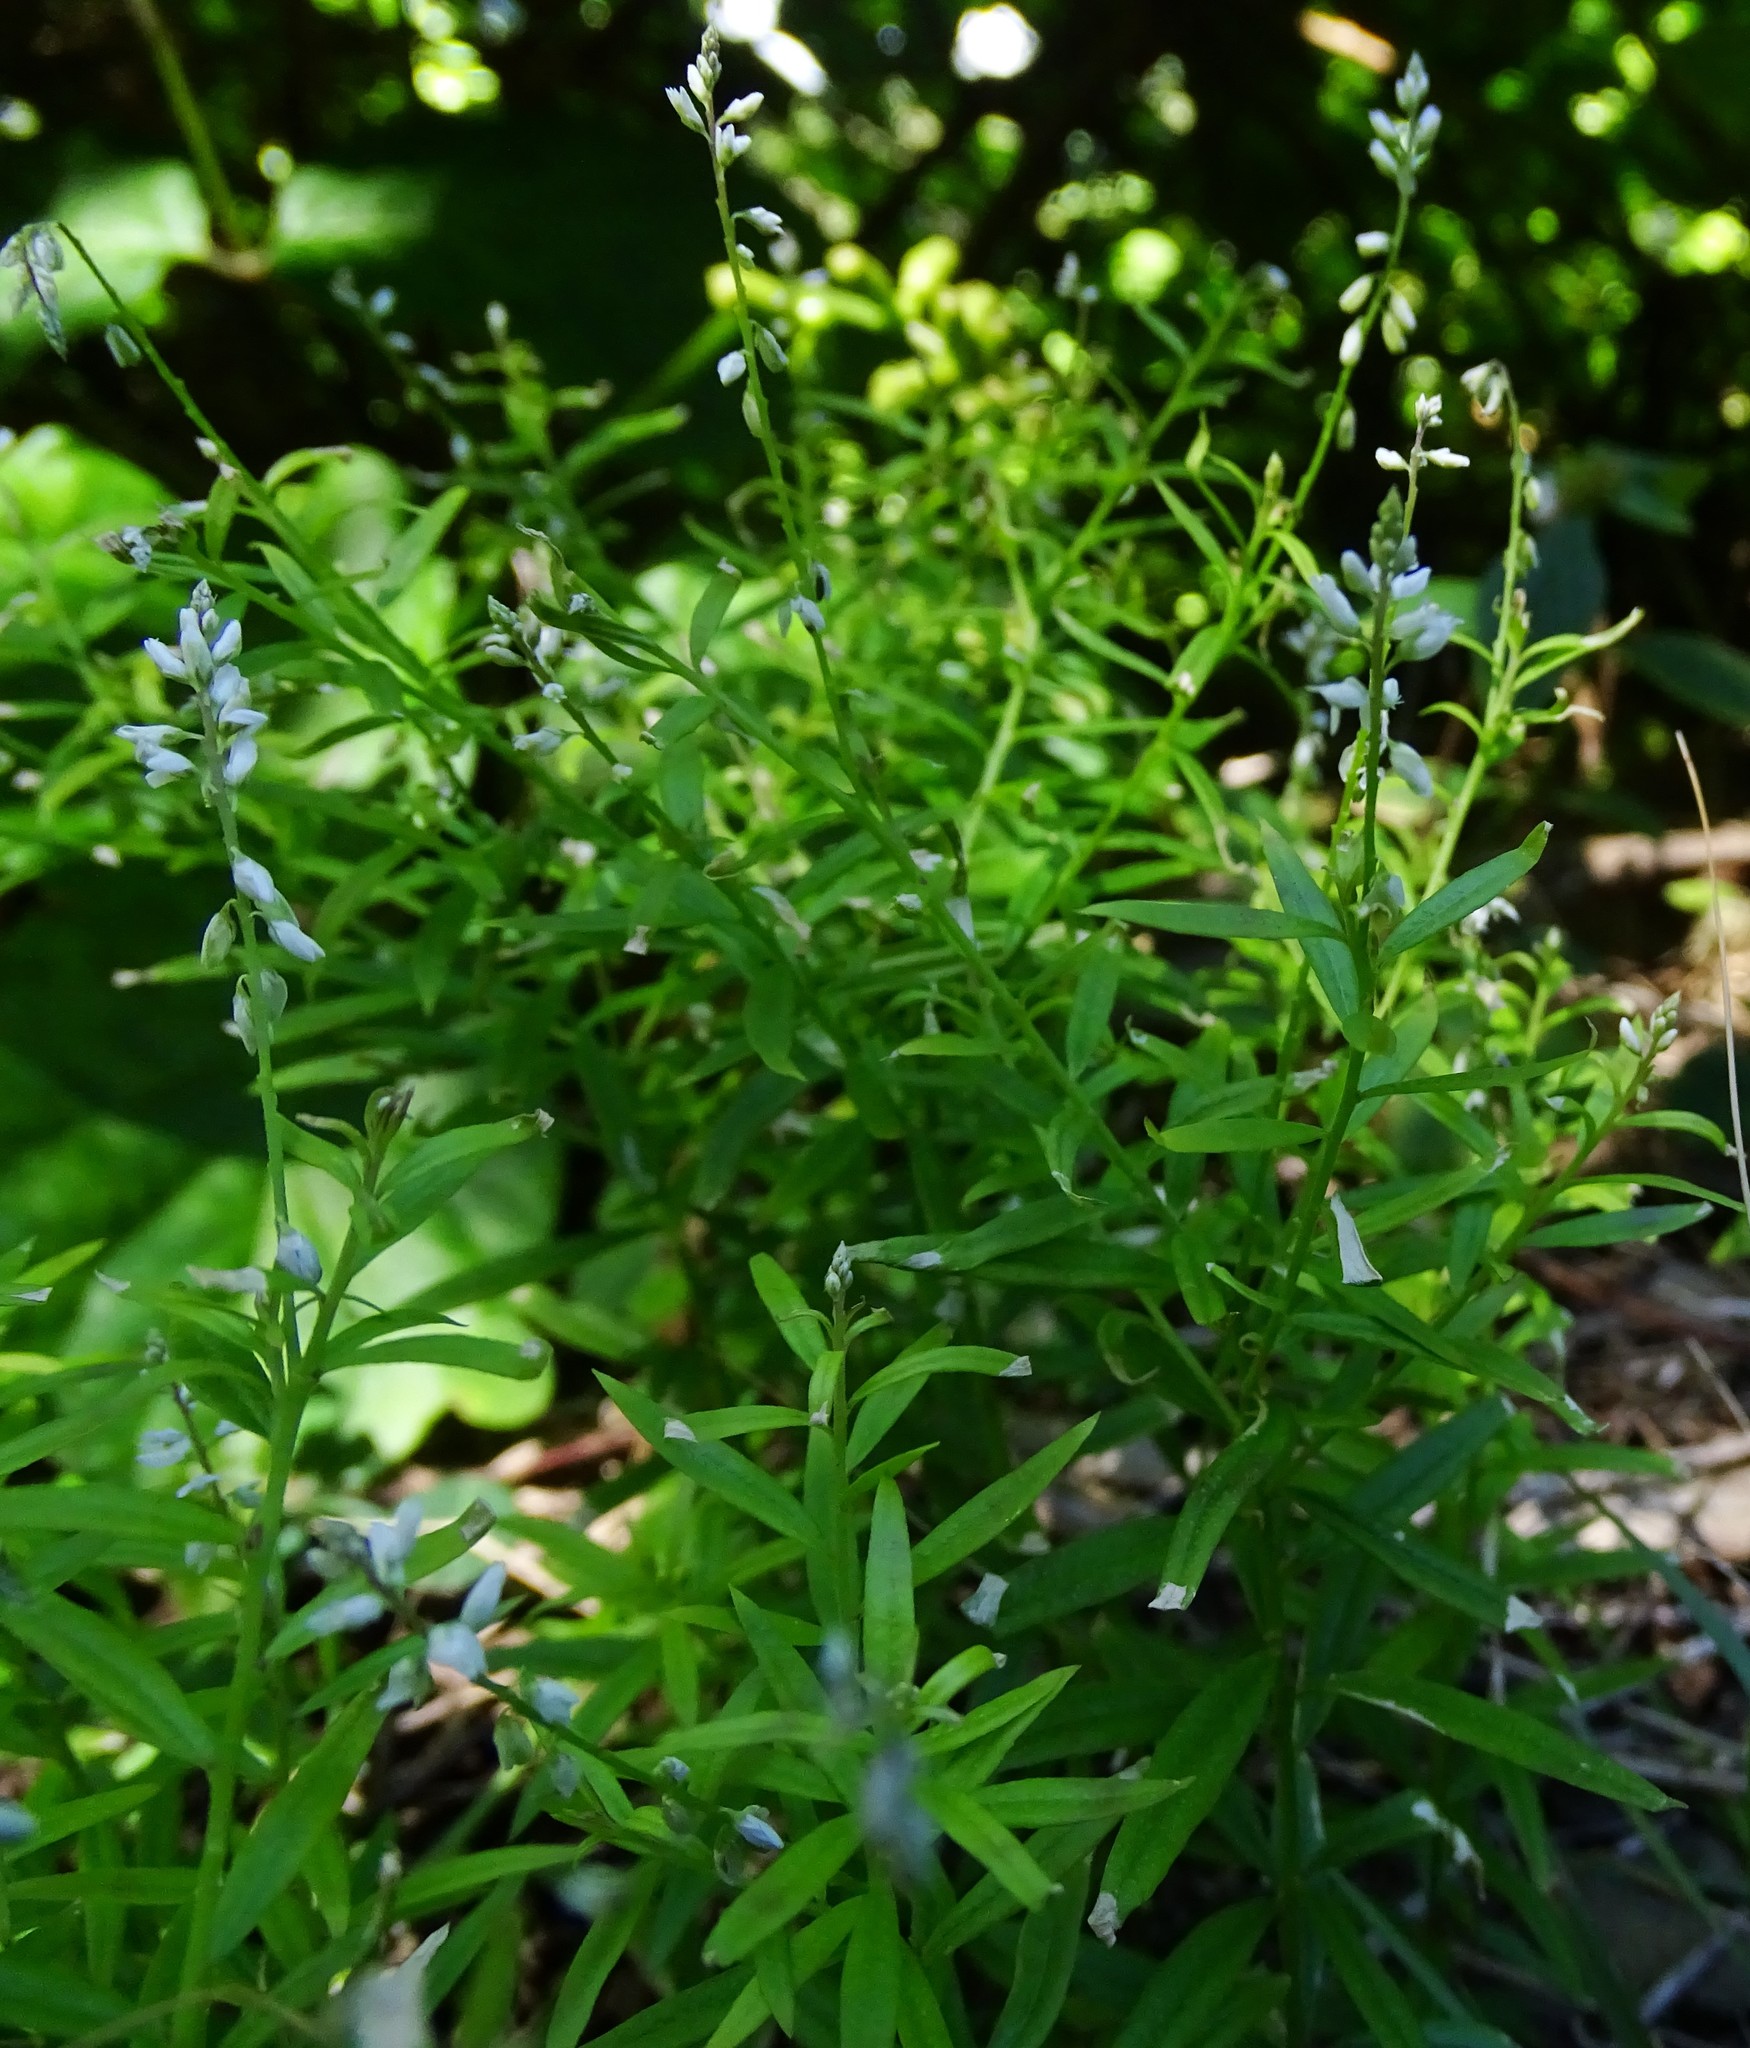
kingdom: Plantae
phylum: Tracheophyta
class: Magnoliopsida
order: Fabales
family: Polygalaceae
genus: Polygala
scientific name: Polygala paniculata
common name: Orosne
